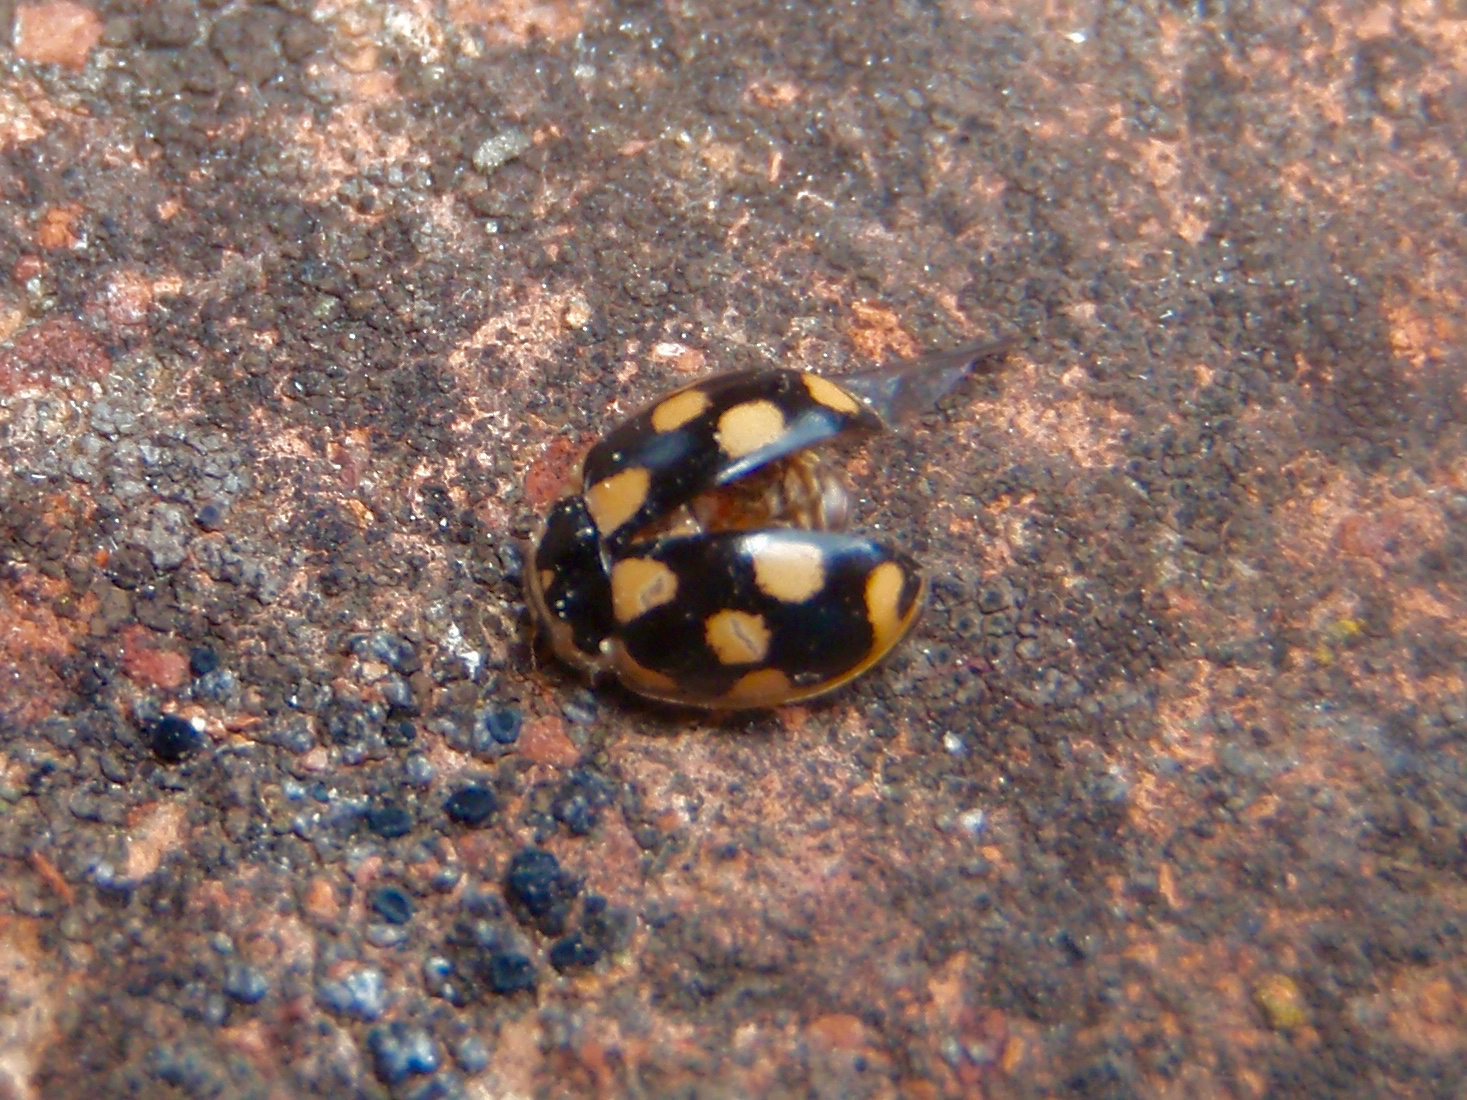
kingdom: Animalia
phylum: Arthropoda
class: Insecta
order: Coleoptera
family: Coccinellidae
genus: Propylaea
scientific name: Propylaea quatuordecimpunctata
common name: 14-spotted ladybird beetle
